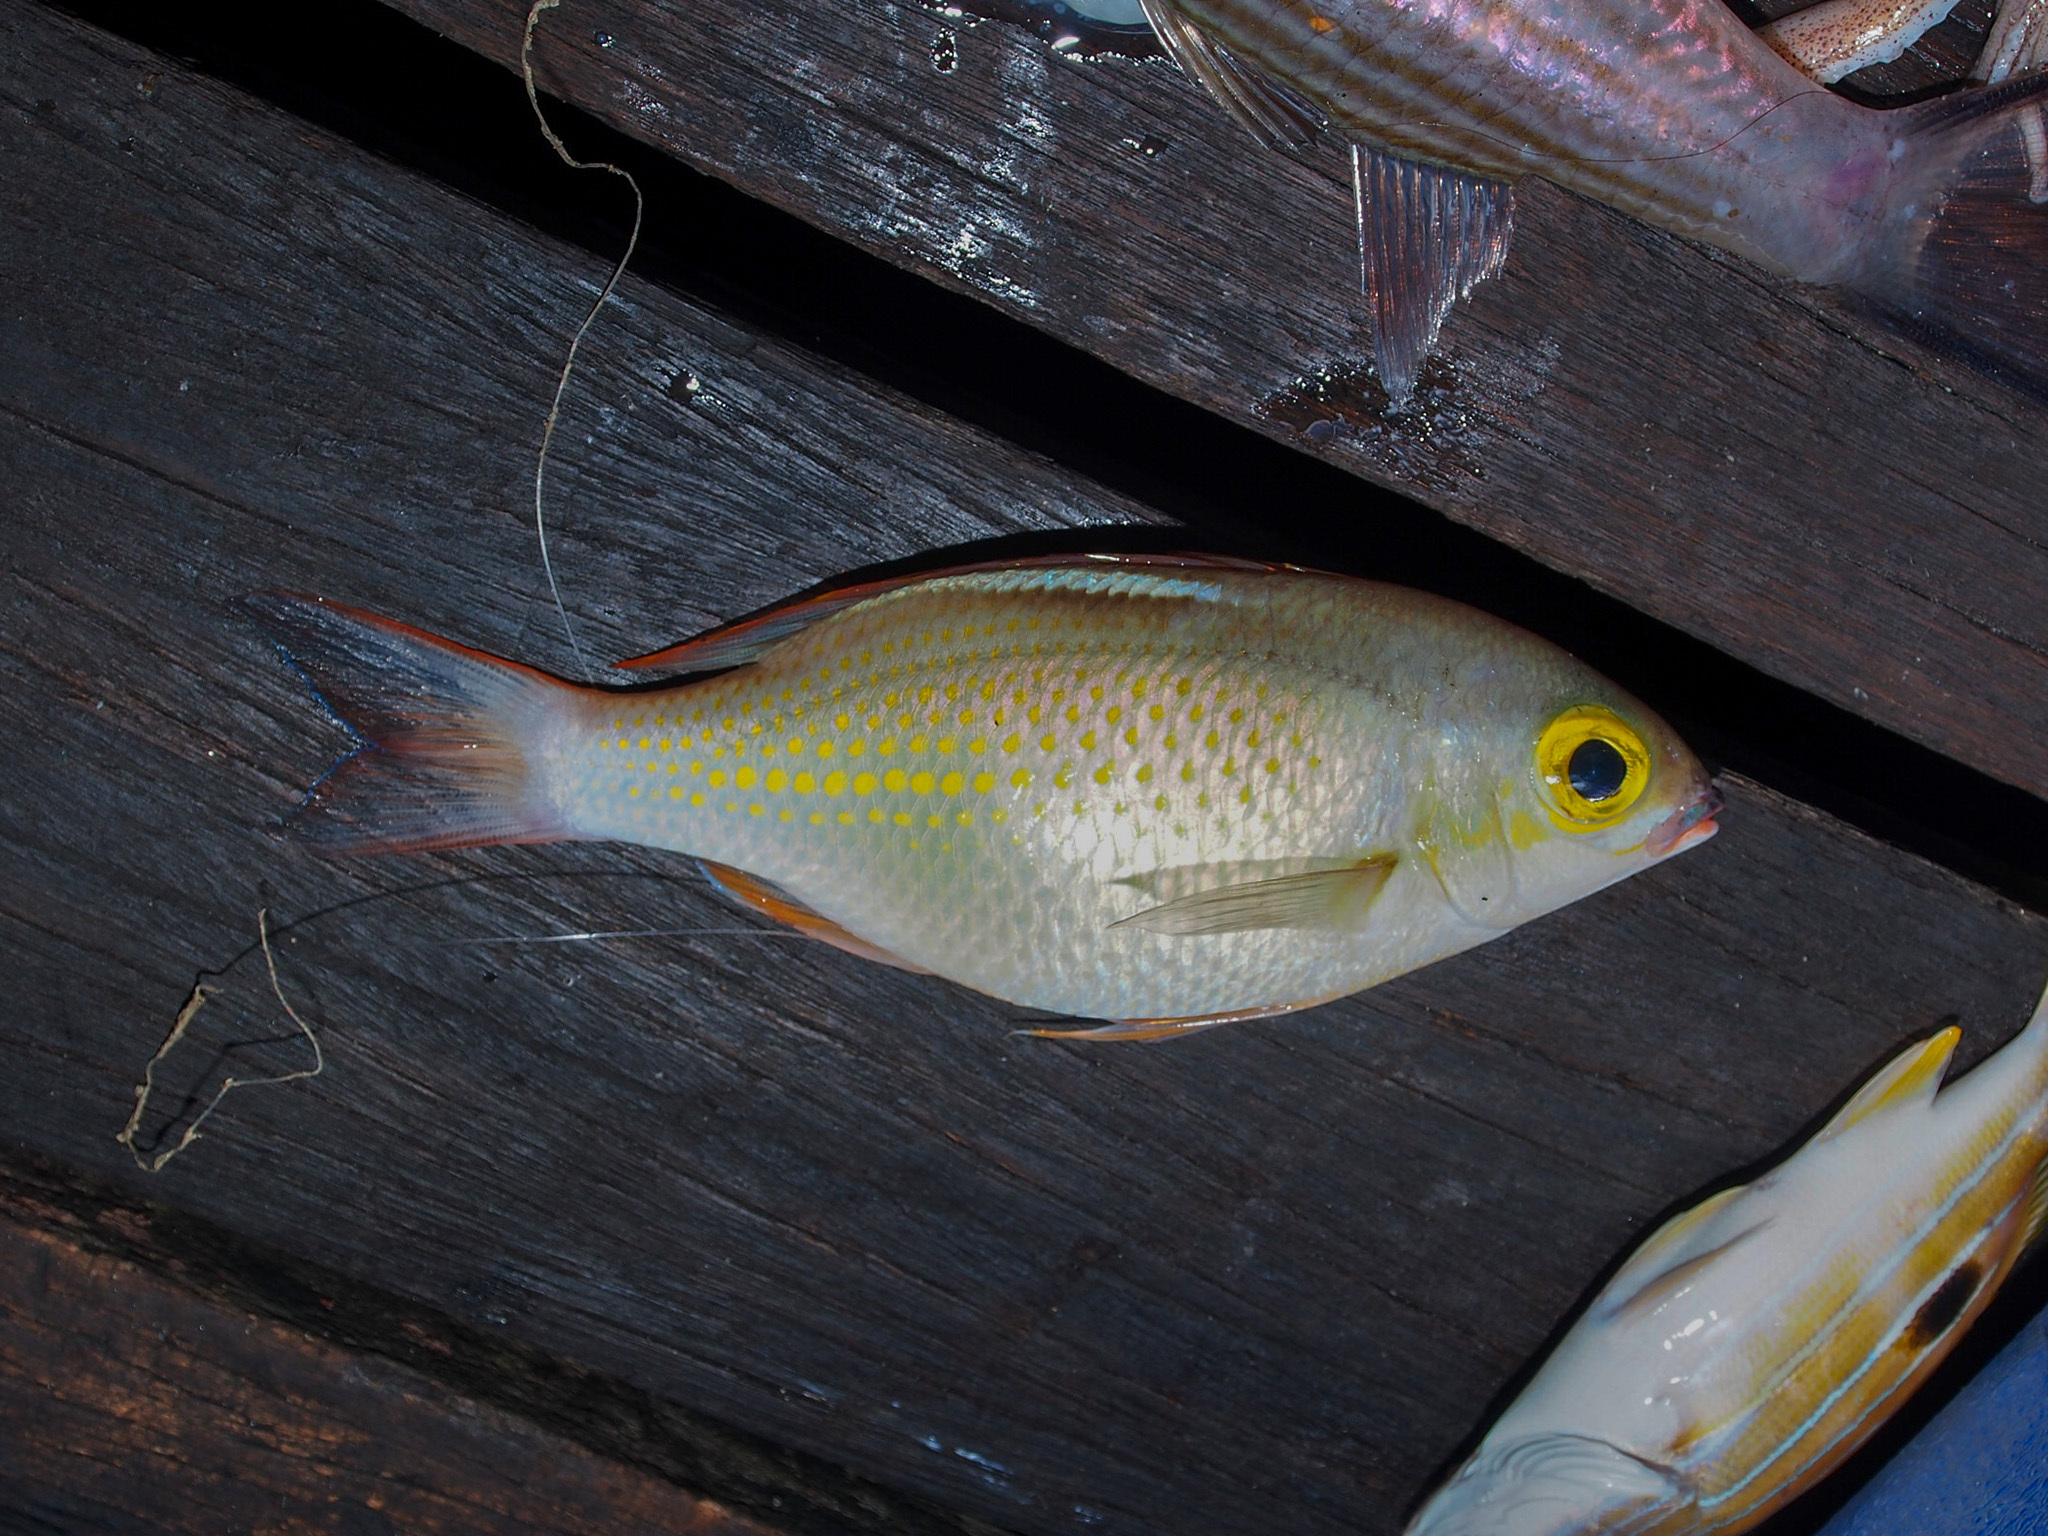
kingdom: Animalia
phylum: Chordata
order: Perciformes
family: Nemipteridae
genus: Scolopsis
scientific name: Scolopsis ciliata
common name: Ciliate spinecheek
